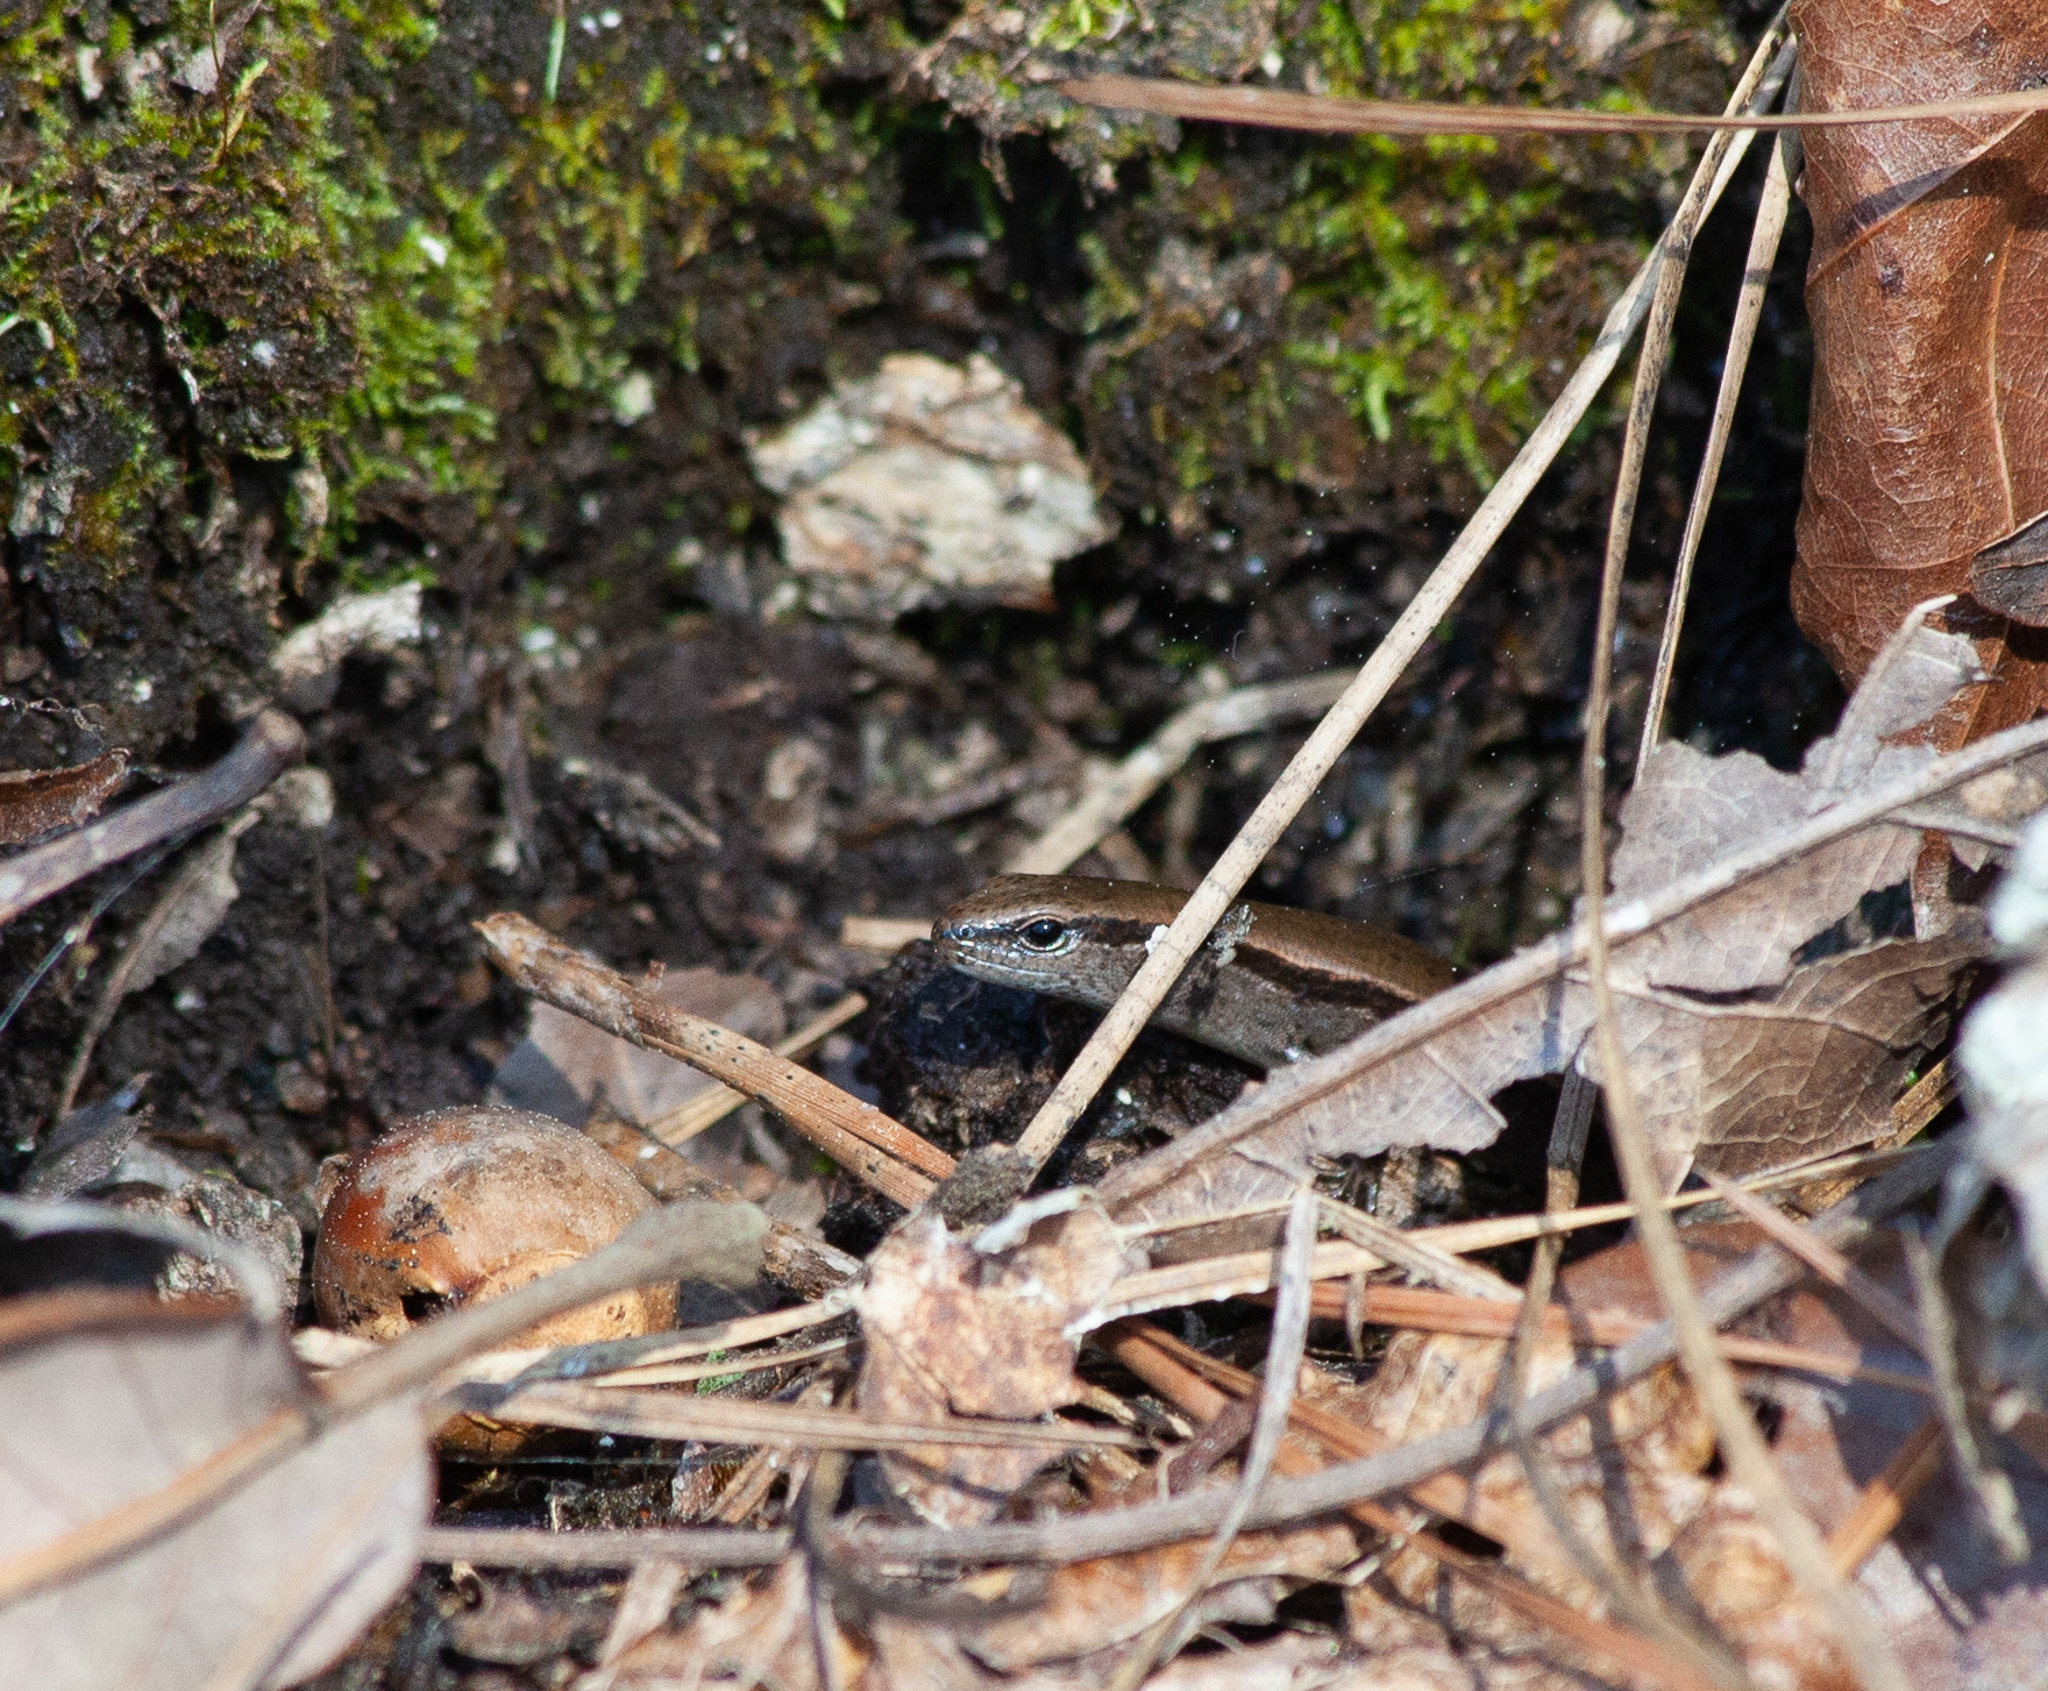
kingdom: Animalia
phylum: Chordata
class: Squamata
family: Scincidae
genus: Scincella
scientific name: Scincella lateralis
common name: Ground skink
